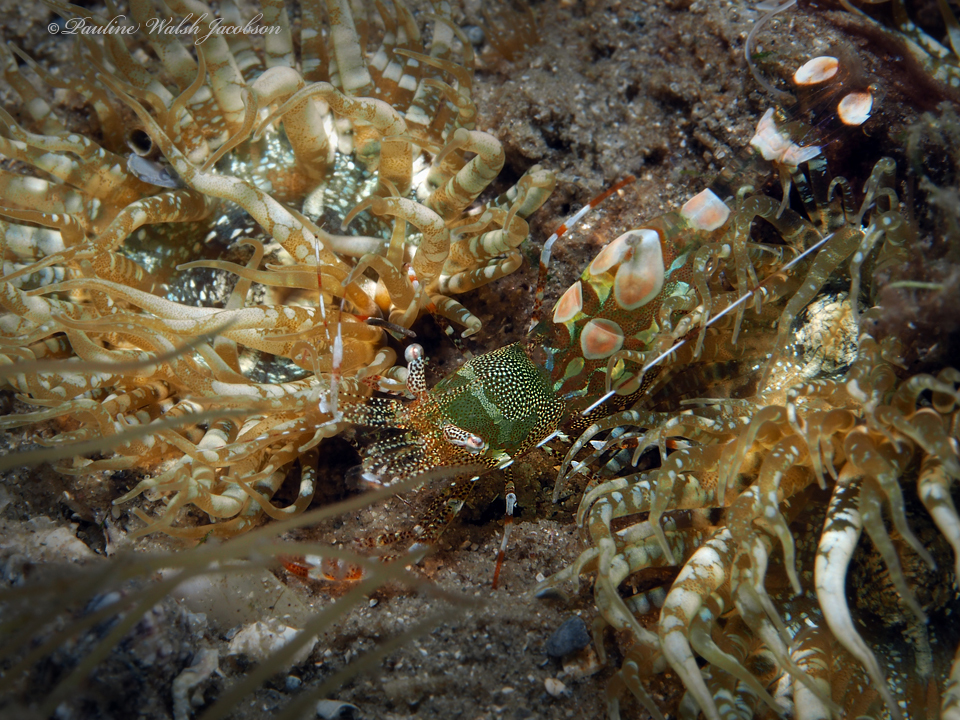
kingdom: Animalia
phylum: Arthropoda
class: Malacostraca
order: Decapoda
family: Palaemonidae
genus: Periclimenes
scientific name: Periclimenes yucatanicus
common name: Spotted cleaning shrimp
